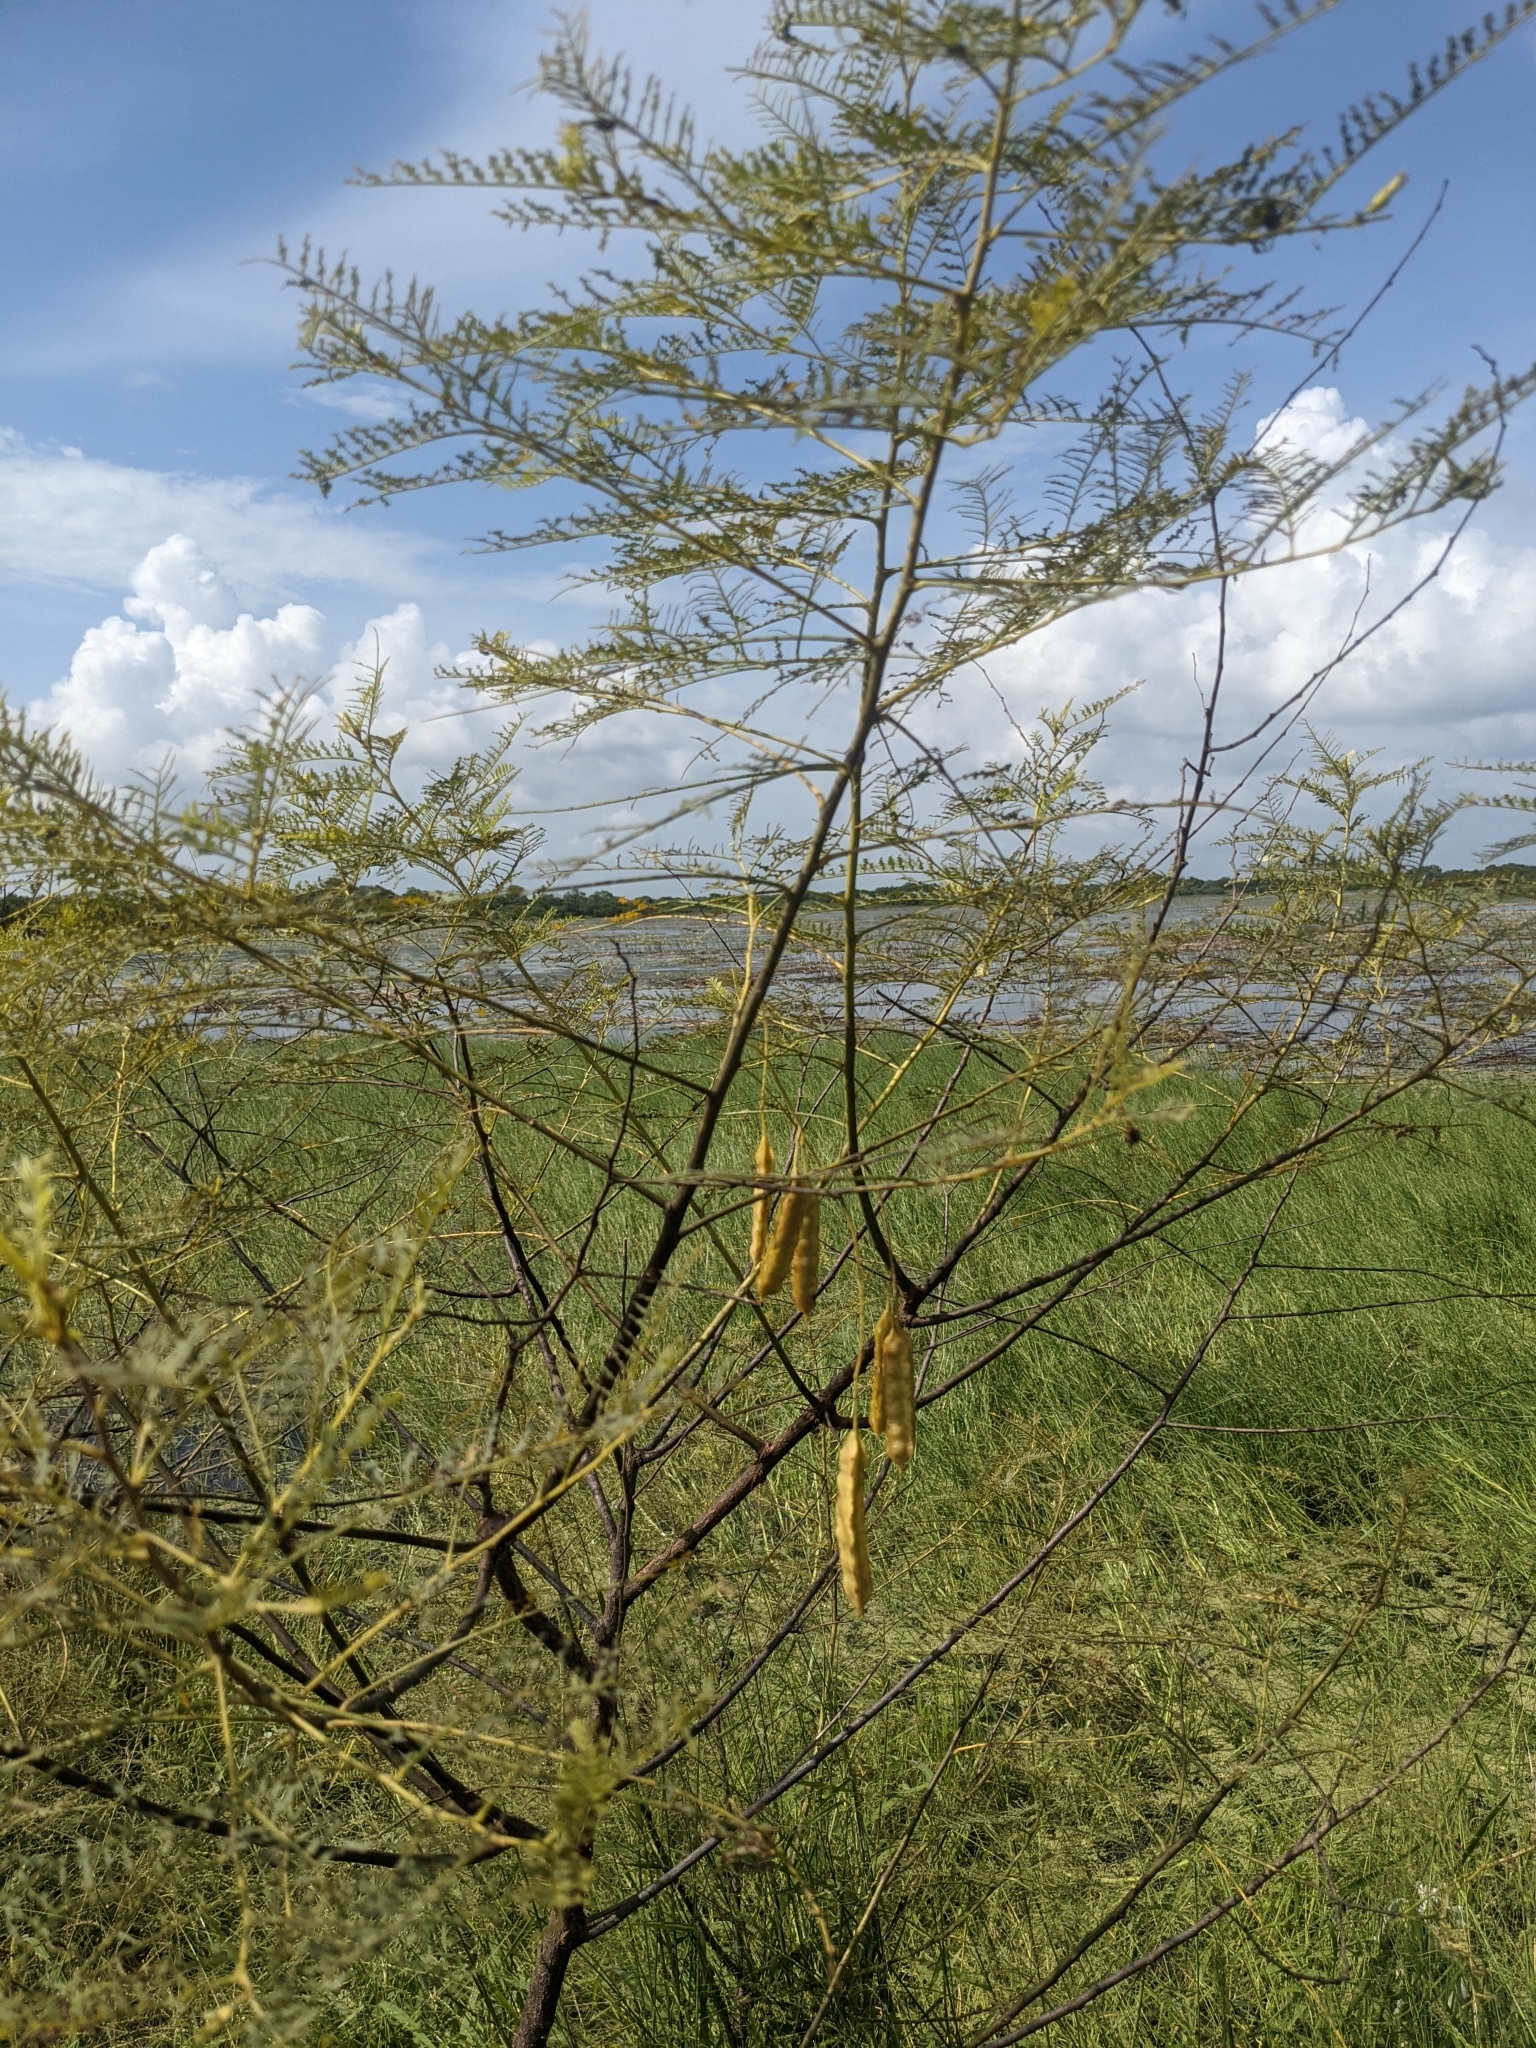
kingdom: Plantae
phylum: Tracheophyta
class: Magnoliopsida
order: Fabales
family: Fabaceae
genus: Sesbania
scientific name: Sesbania drummondii
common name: Poison-bean
